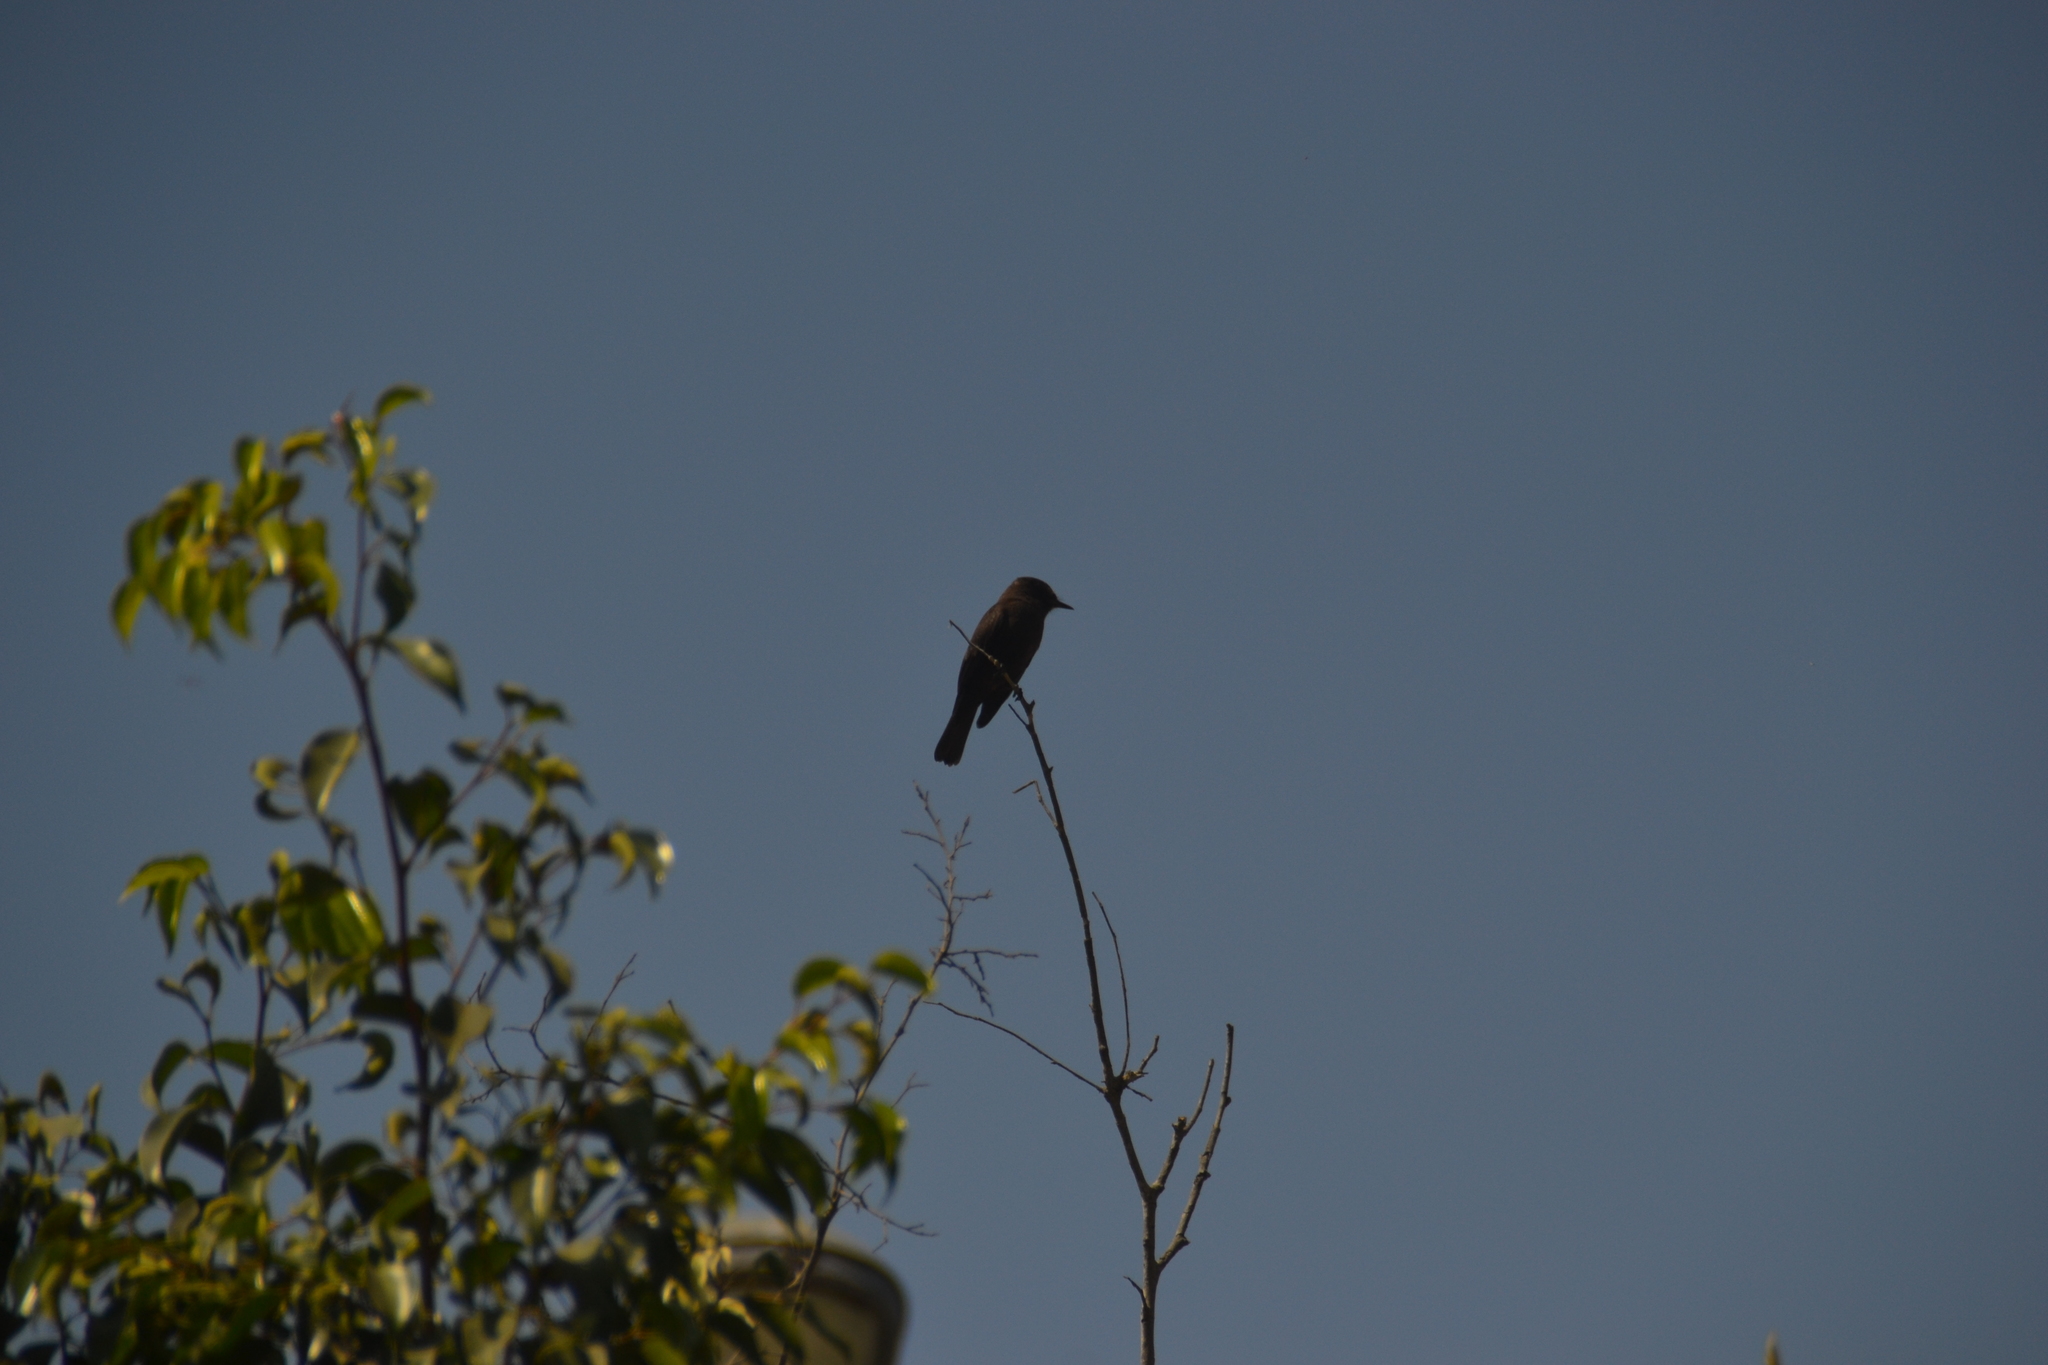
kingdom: Animalia
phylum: Chordata
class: Aves
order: Passeriformes
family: Tyrannidae
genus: Pyrocephalus
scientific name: Pyrocephalus rubinus
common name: Vermilion flycatcher
